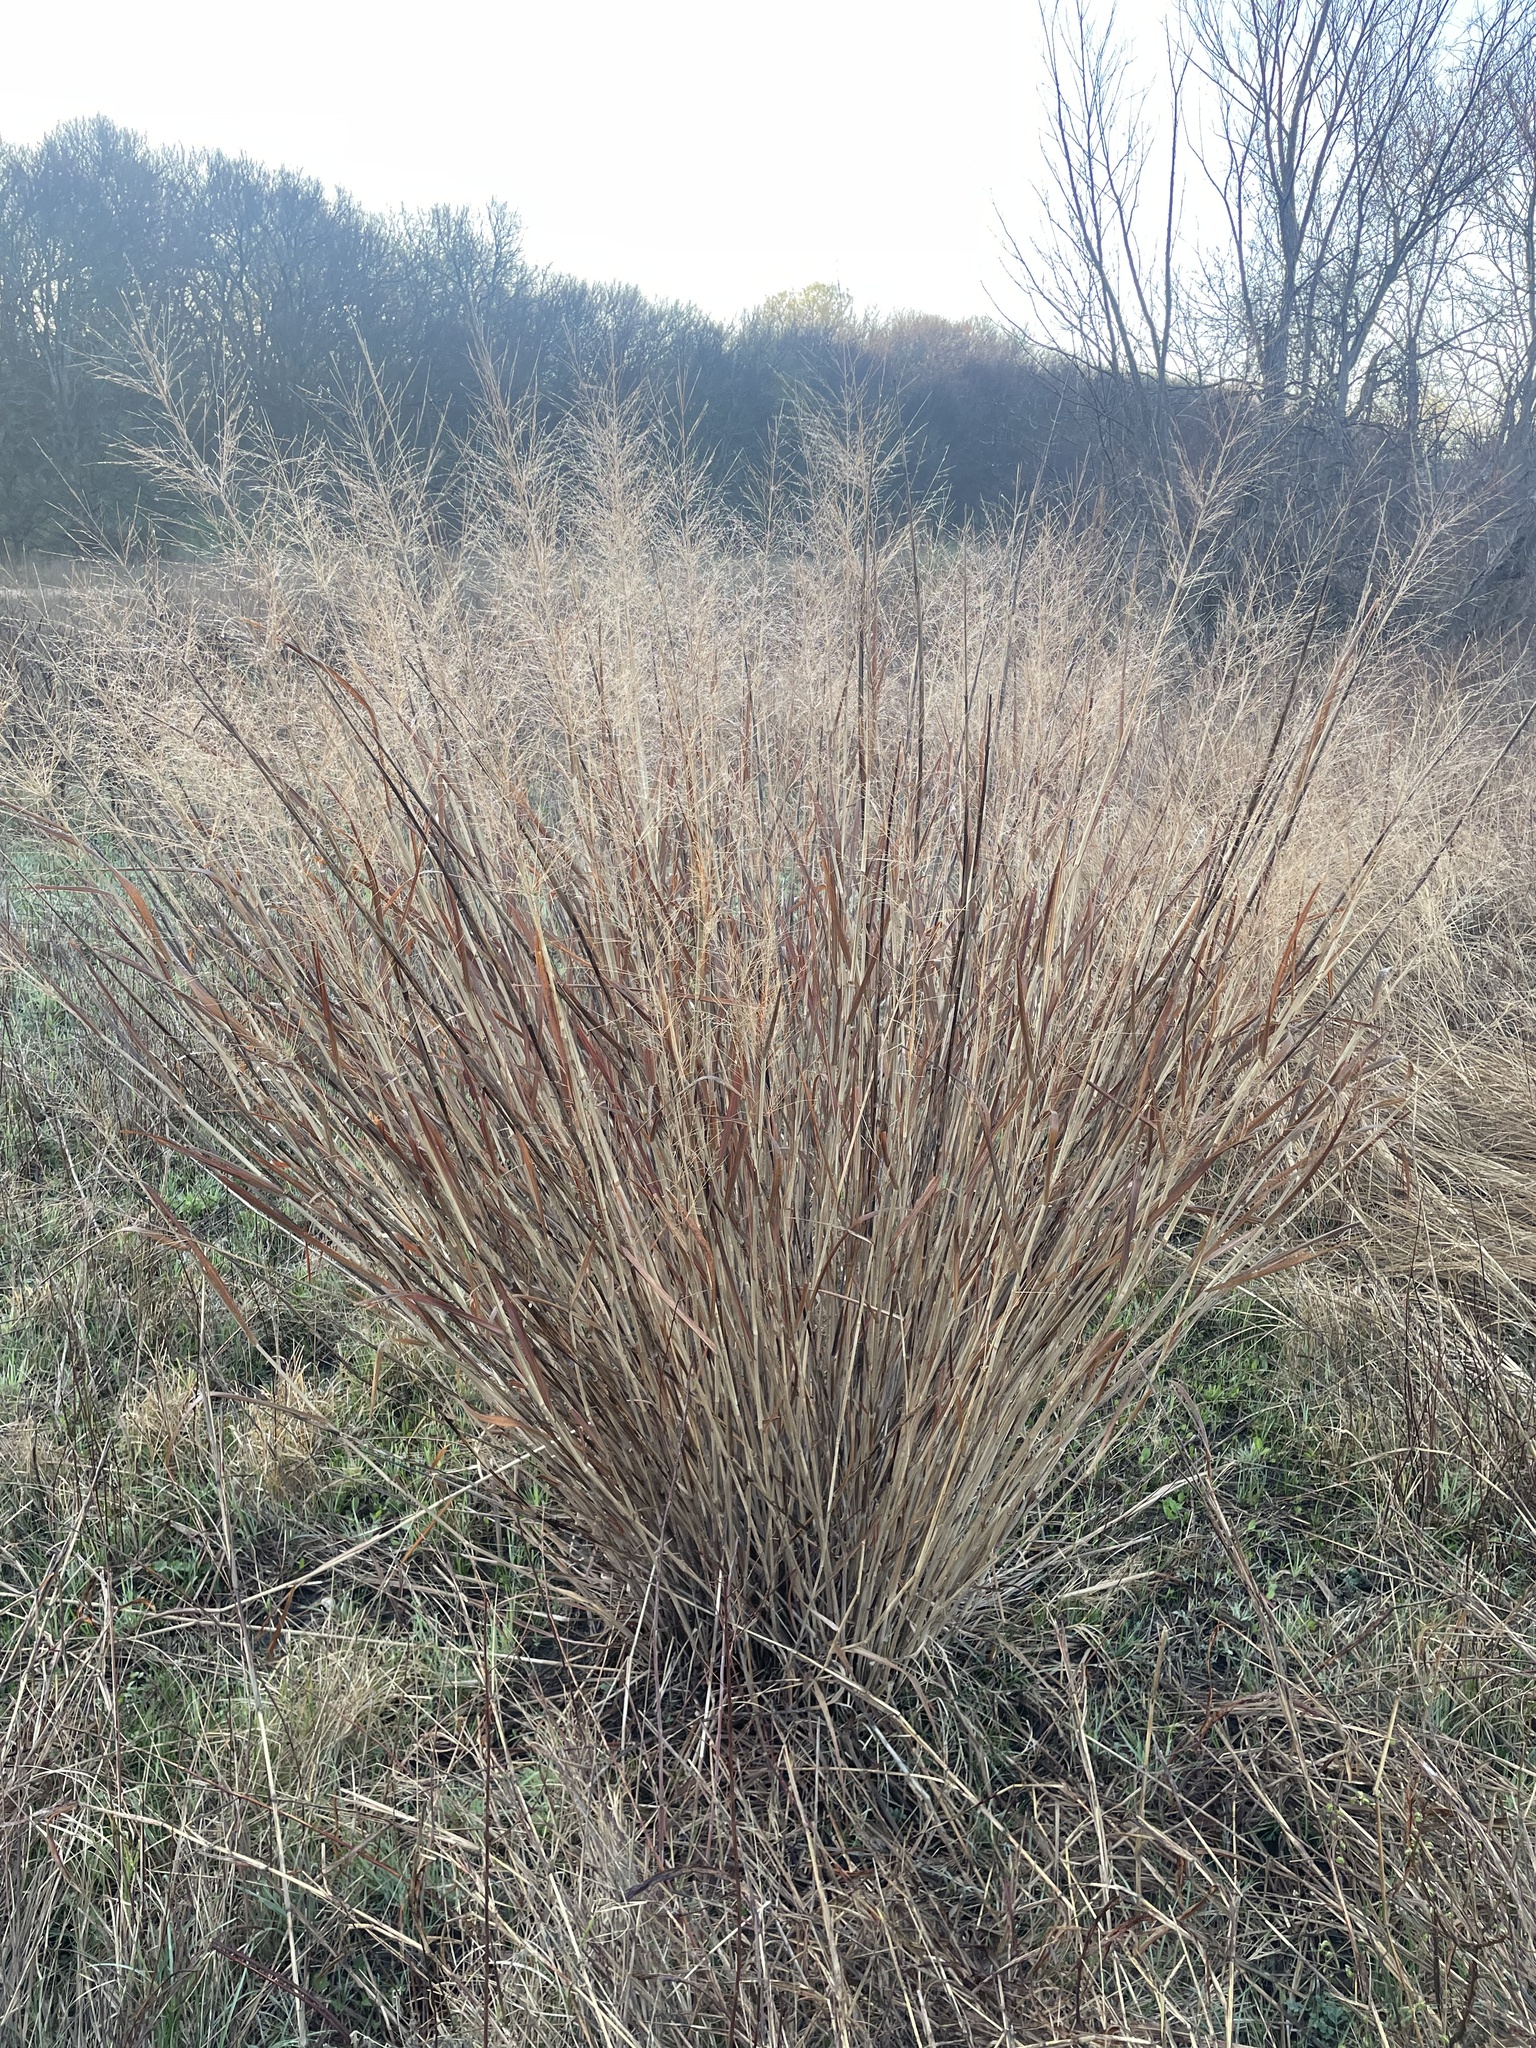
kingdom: Plantae
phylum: Tracheophyta
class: Liliopsida
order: Poales
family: Poaceae
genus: Panicum
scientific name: Panicum virgatum
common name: Switchgrass
